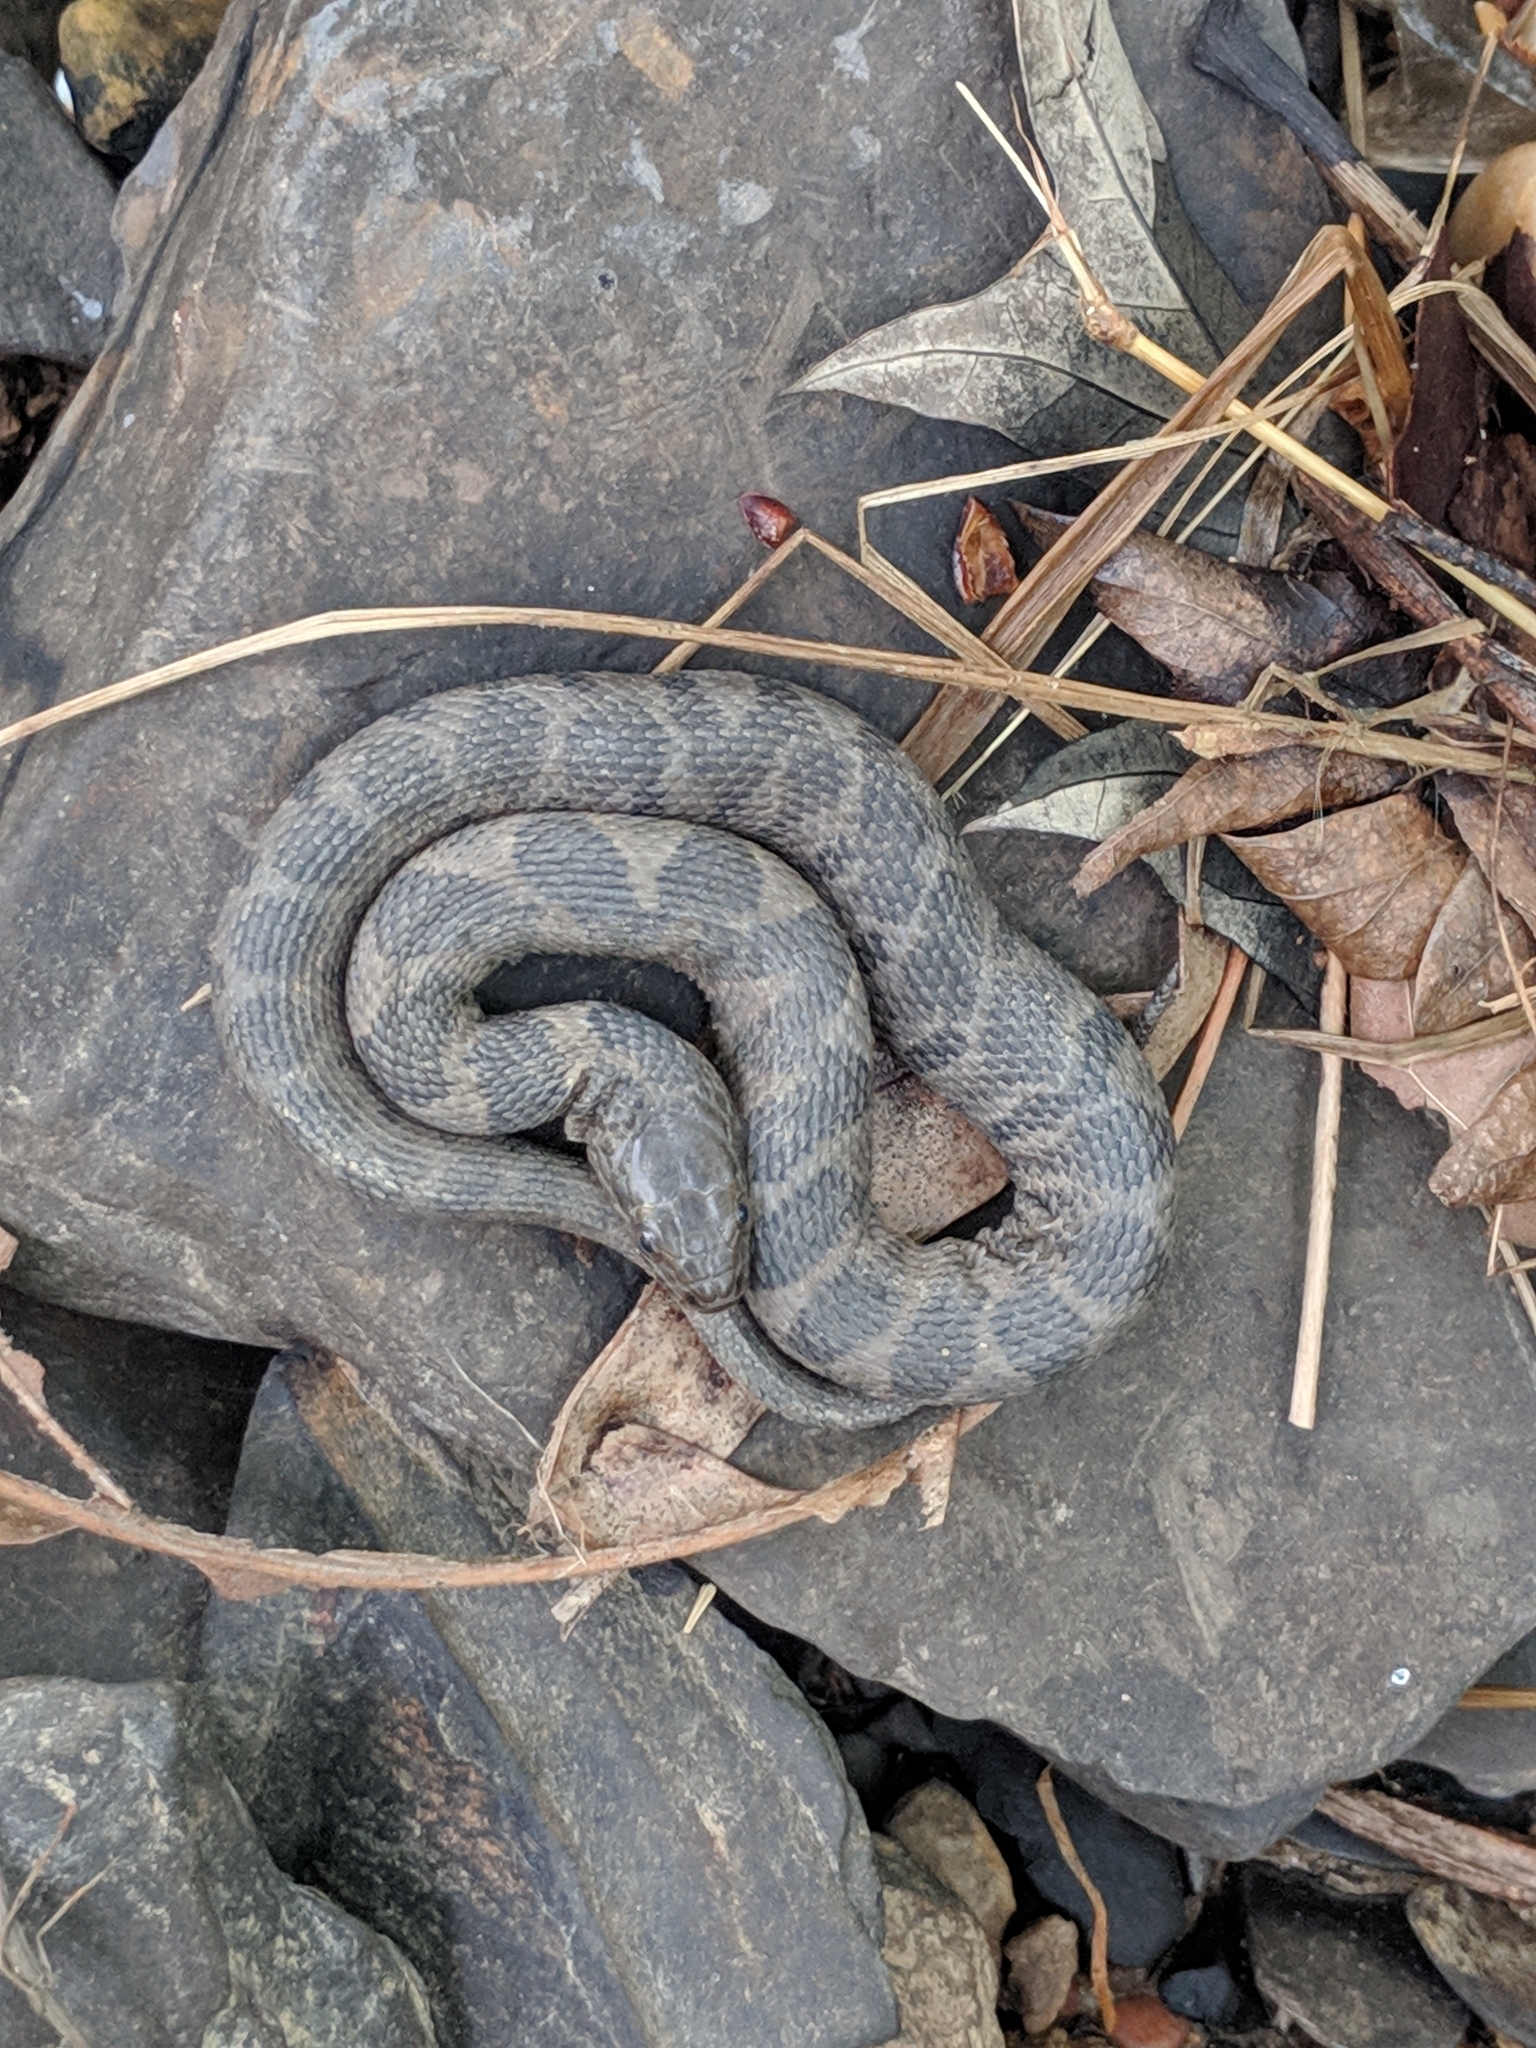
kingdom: Animalia
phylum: Chordata
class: Squamata
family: Colubridae
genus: Nerodia
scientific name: Nerodia sipedon
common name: Northern water snake
